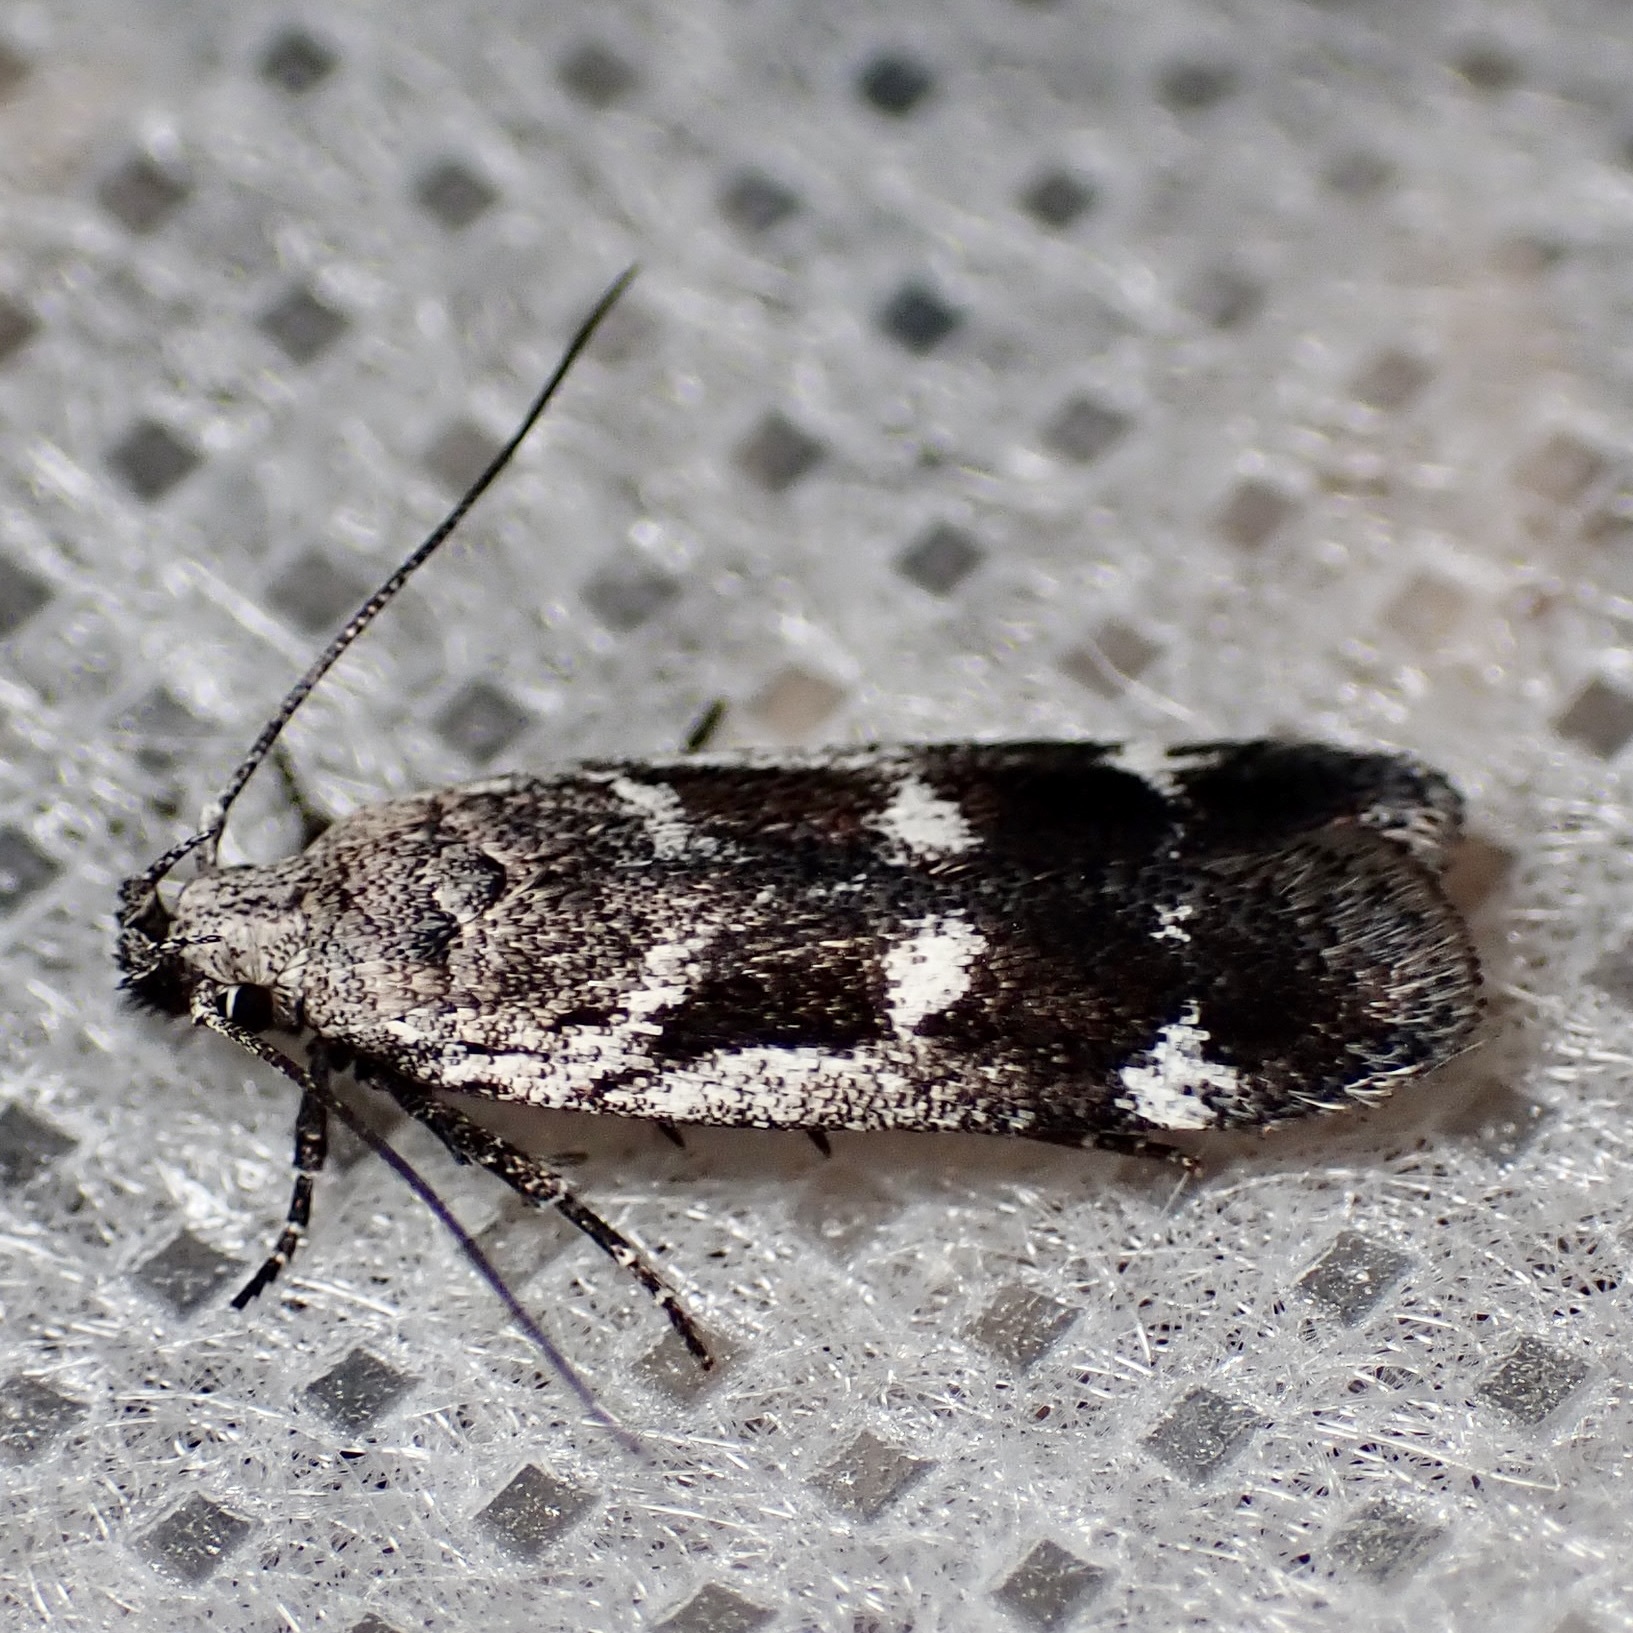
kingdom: Animalia
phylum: Arthropoda
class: Insecta
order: Lepidoptera
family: Gelechiidae
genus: Filatima
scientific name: Filatima obidenna
